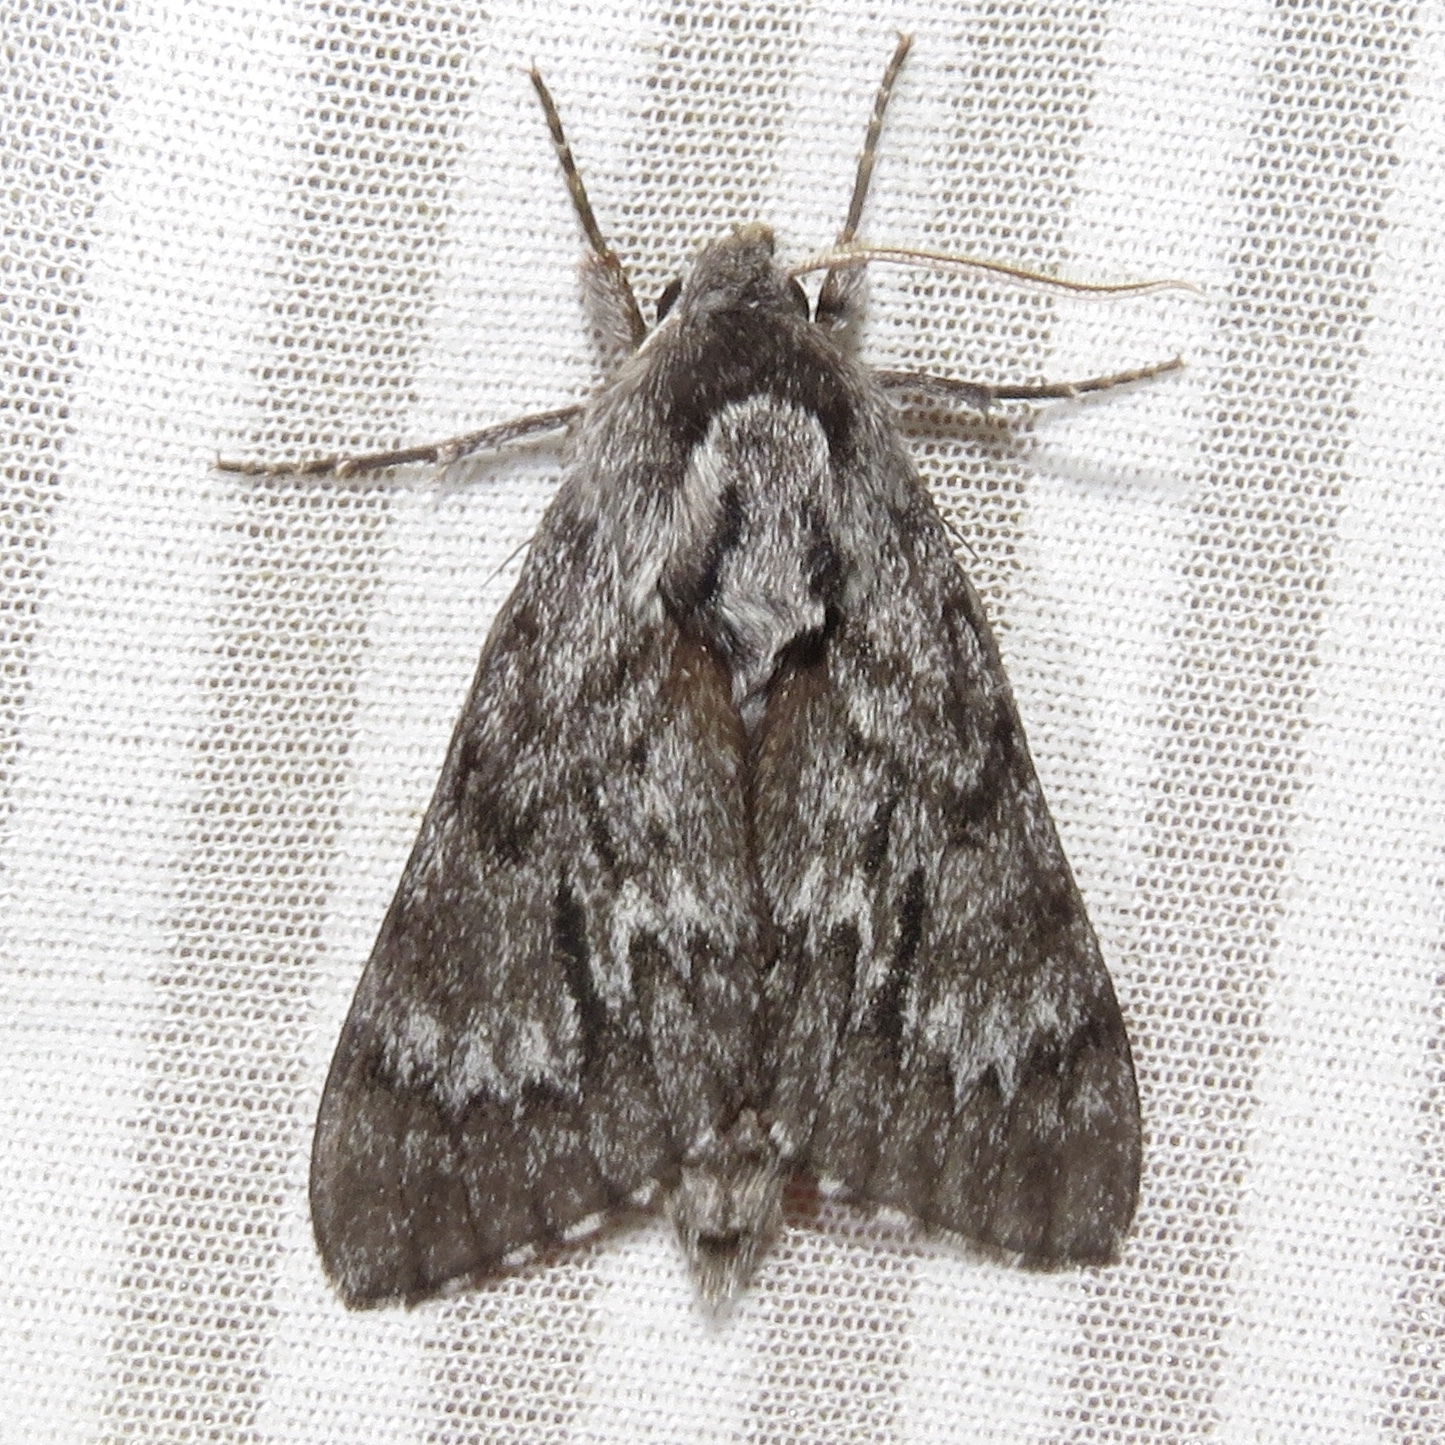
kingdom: Animalia
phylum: Arthropoda
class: Insecta
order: Lepidoptera
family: Sphingidae
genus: Lapara
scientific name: Lapara bombycoides
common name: Northern pine sphinx
